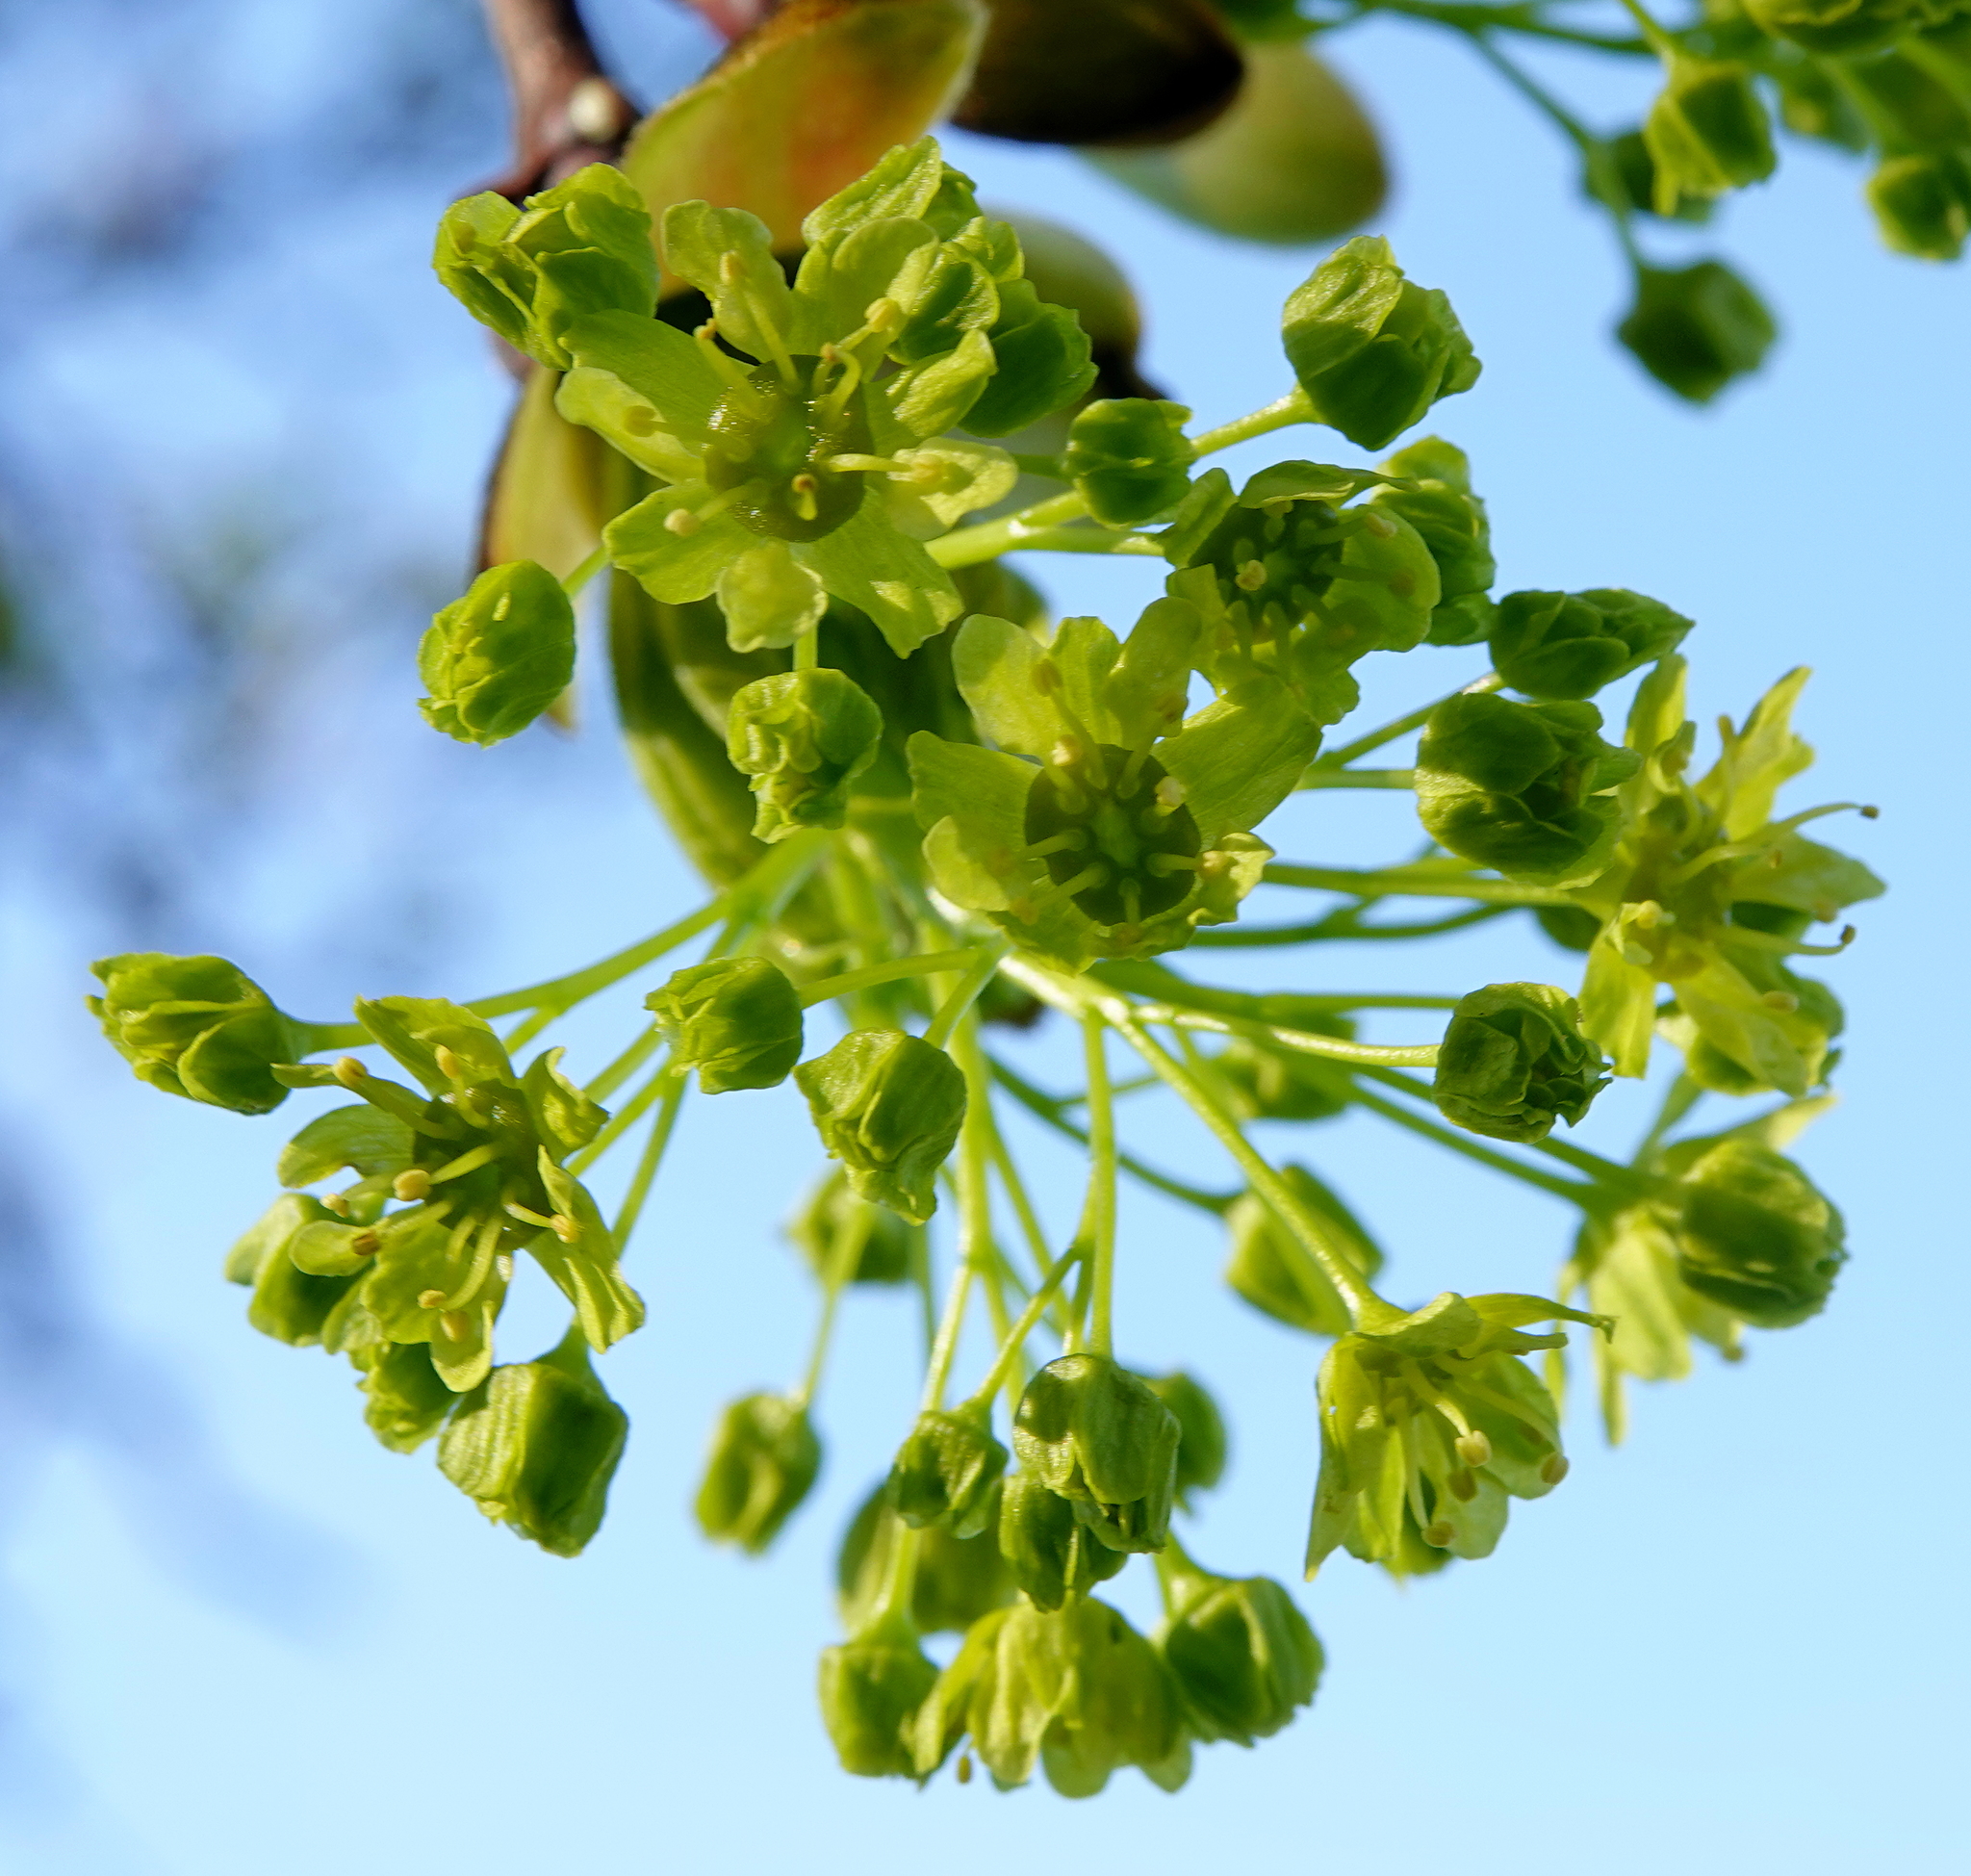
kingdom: Plantae
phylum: Tracheophyta
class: Magnoliopsida
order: Sapindales
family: Sapindaceae
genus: Acer
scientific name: Acer platanoides
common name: Norway maple
